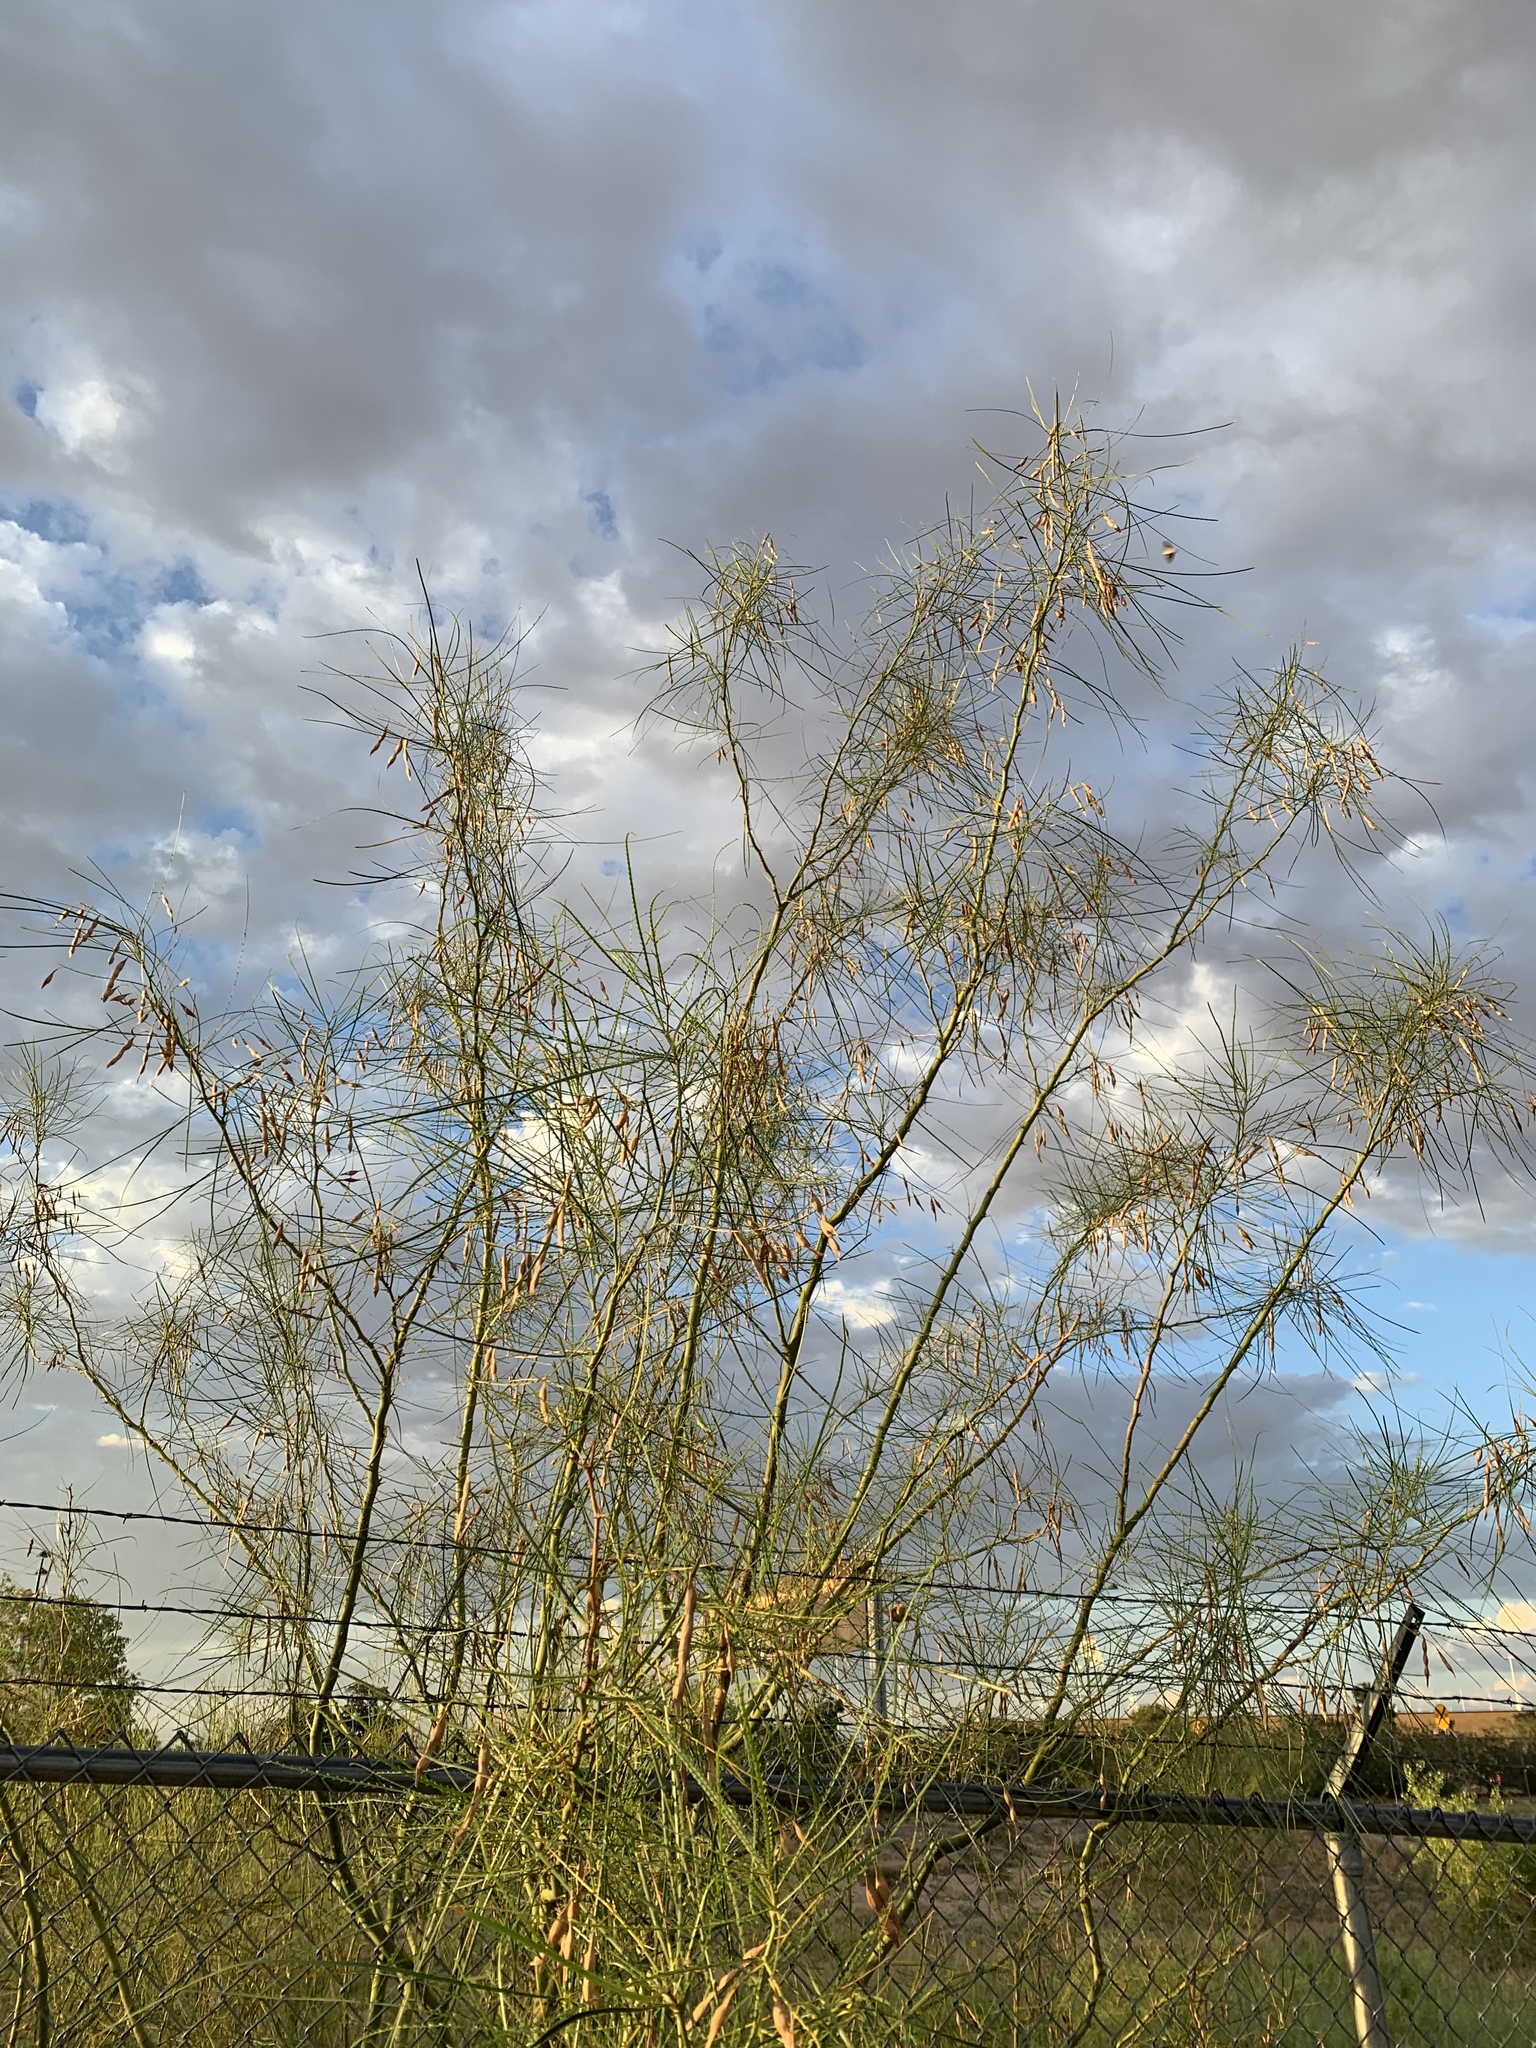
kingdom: Plantae
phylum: Tracheophyta
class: Magnoliopsida
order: Fabales
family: Fabaceae
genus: Parkinsonia
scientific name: Parkinsonia aculeata
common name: Jerusalem thorn
